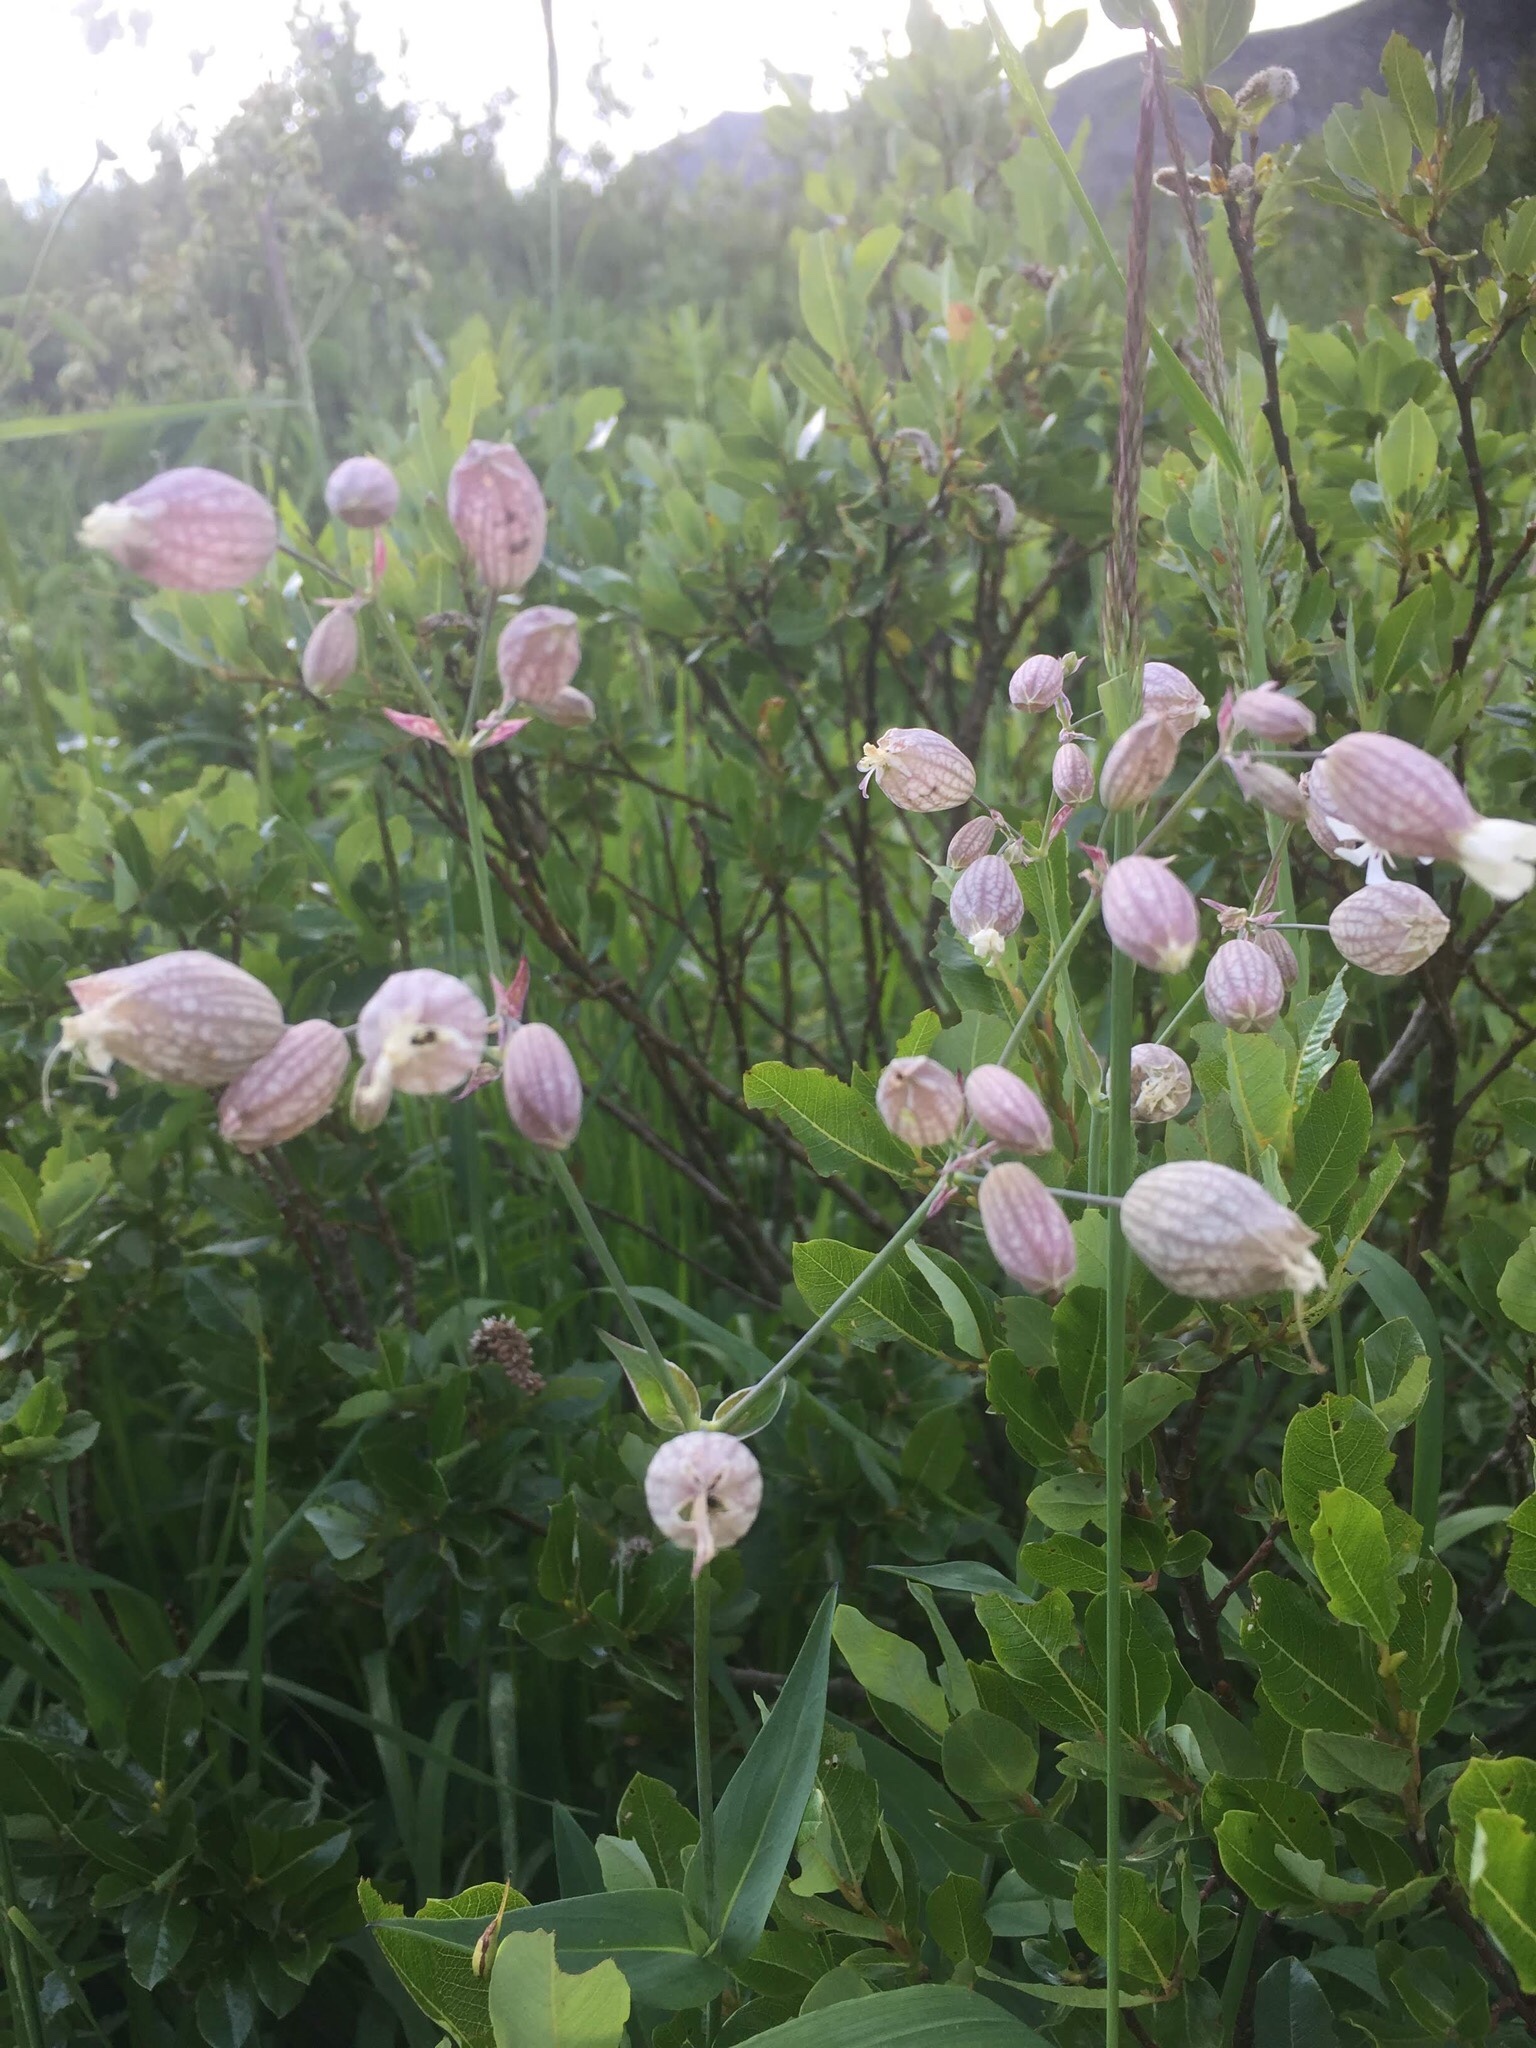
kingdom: Plantae
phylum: Tracheophyta
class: Magnoliopsida
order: Caryophyllales
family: Caryophyllaceae
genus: Silene
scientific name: Silene vulgaris
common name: Bladder campion
